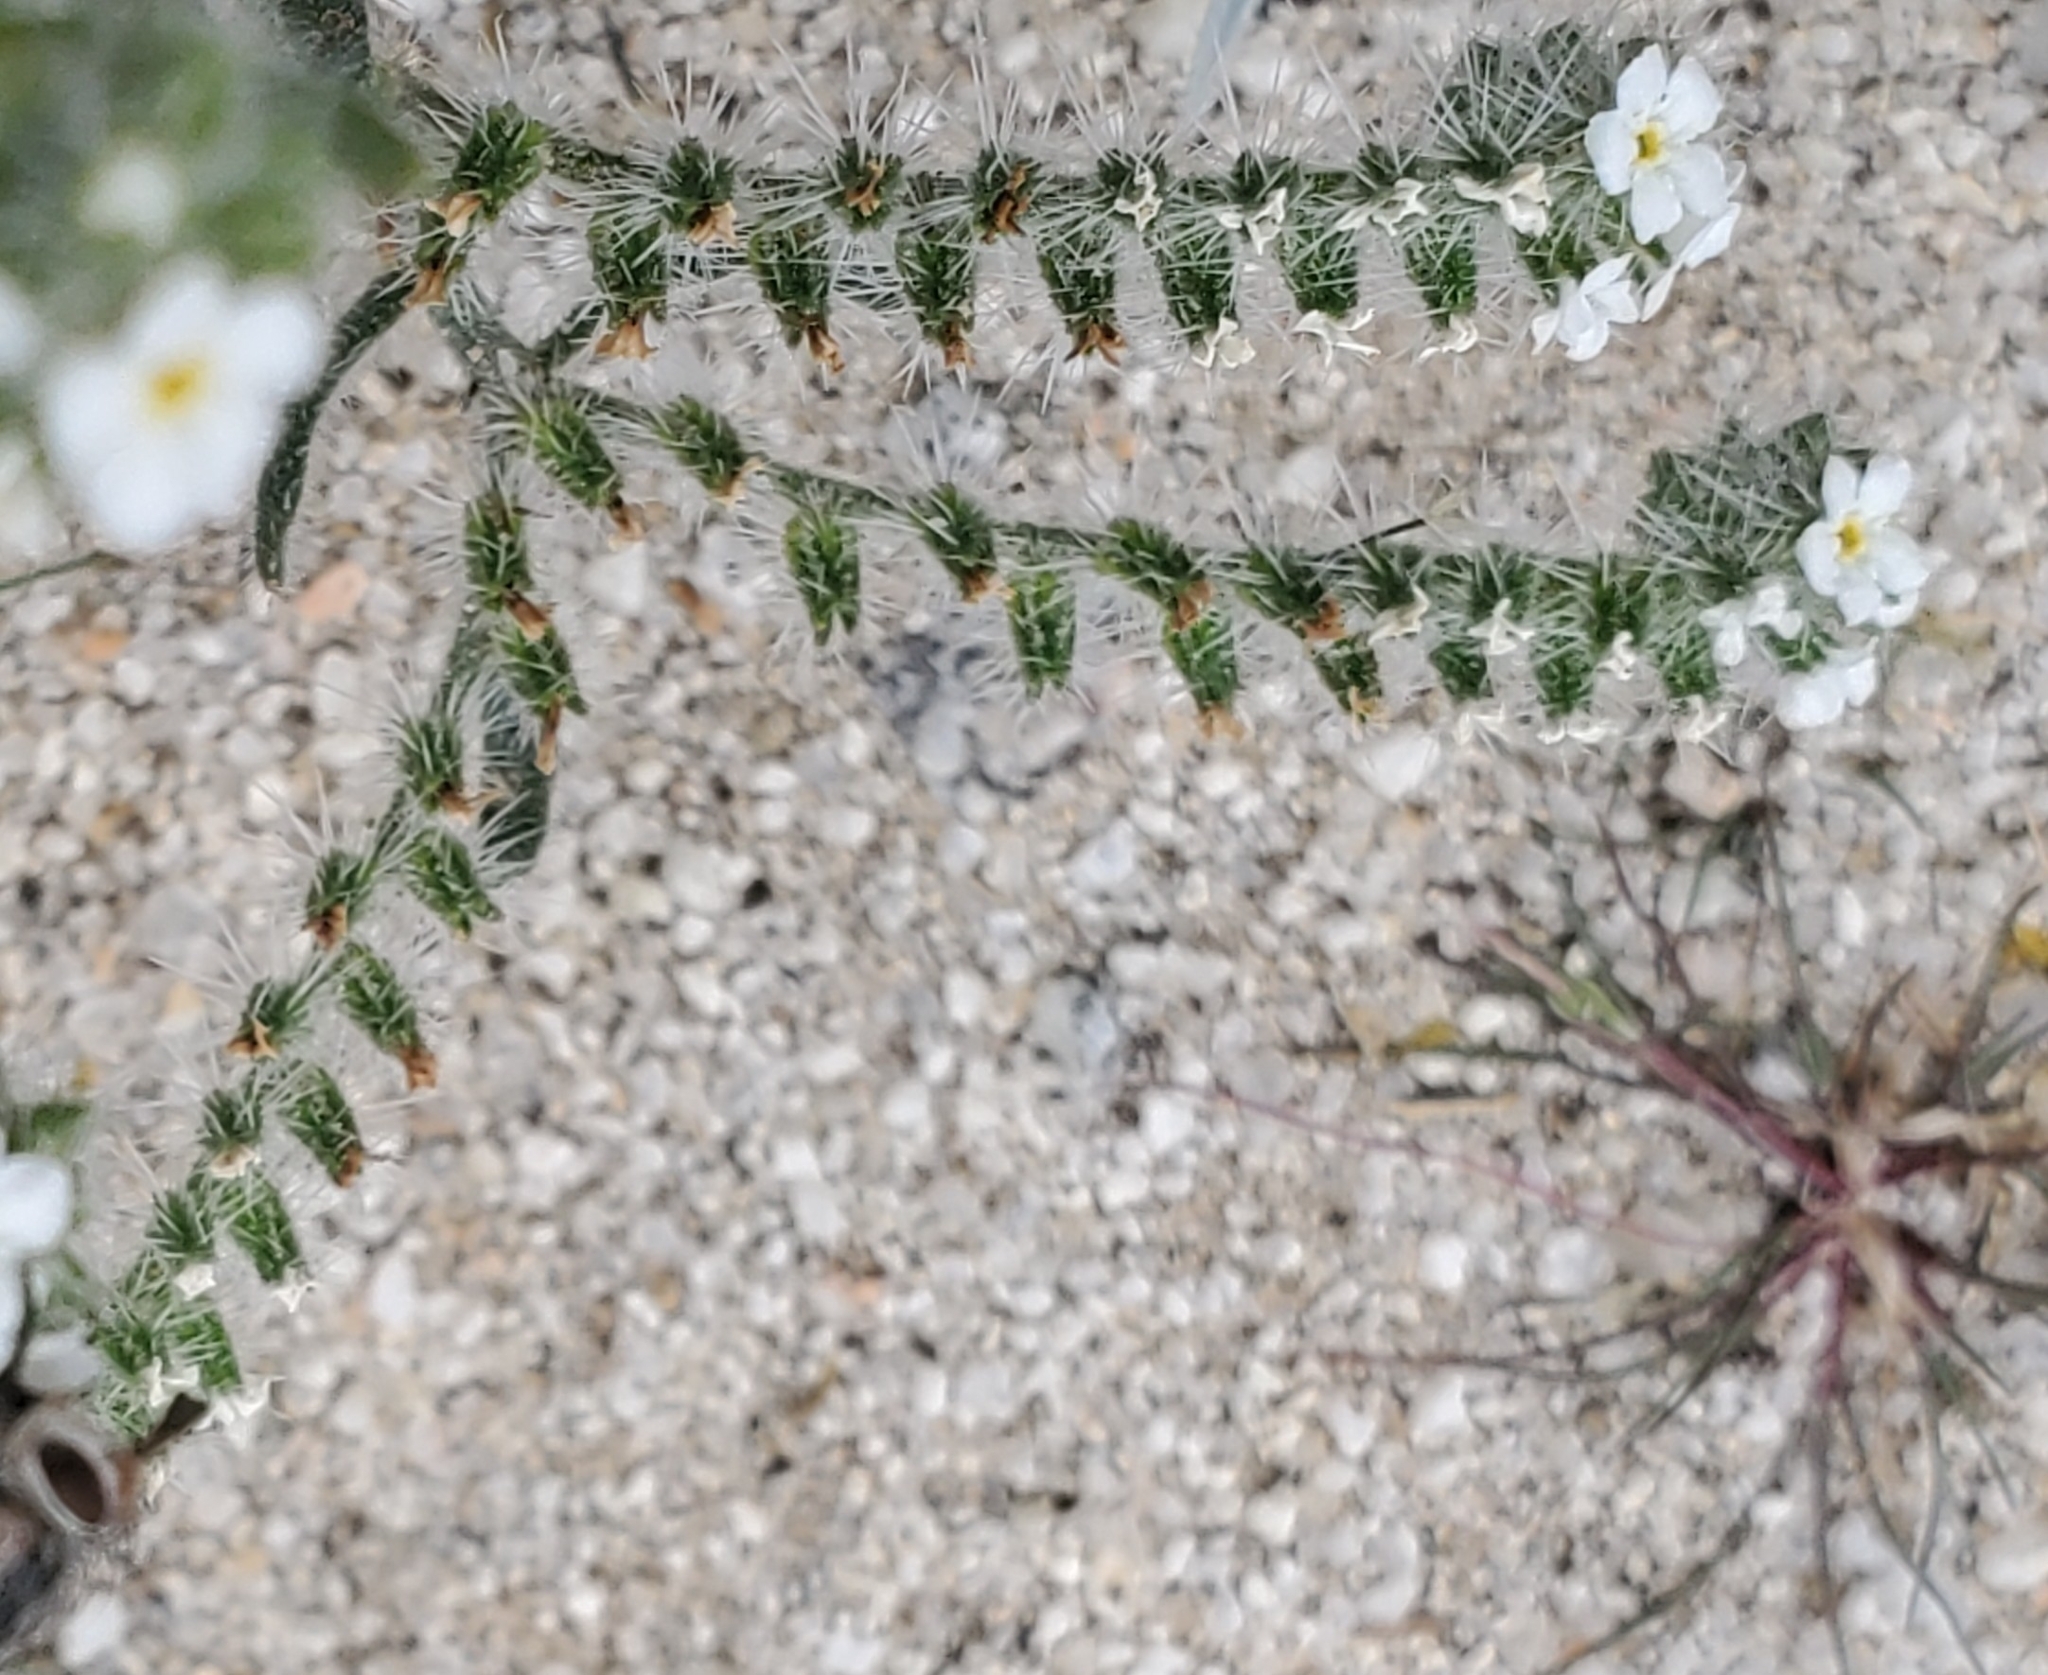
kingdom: Plantae
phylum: Tracheophyta
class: Magnoliopsida
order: Boraginales
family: Boraginaceae
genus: Johnstonella
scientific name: Johnstonella angustifolia
